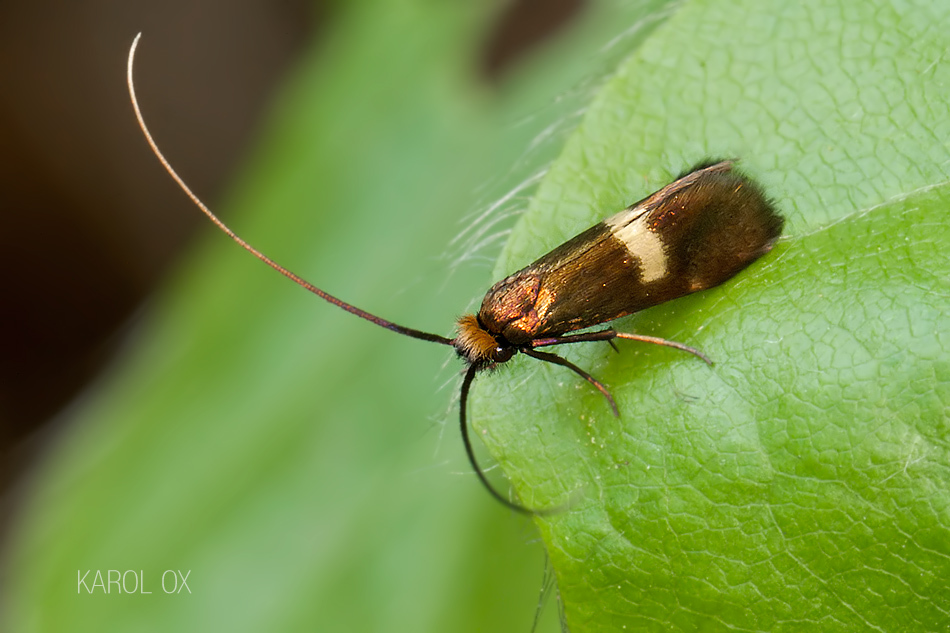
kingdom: Animalia
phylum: Arthropoda
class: Insecta
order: Lepidoptera
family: Adelidae
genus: Cauchas
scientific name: Cauchas leucocerella
